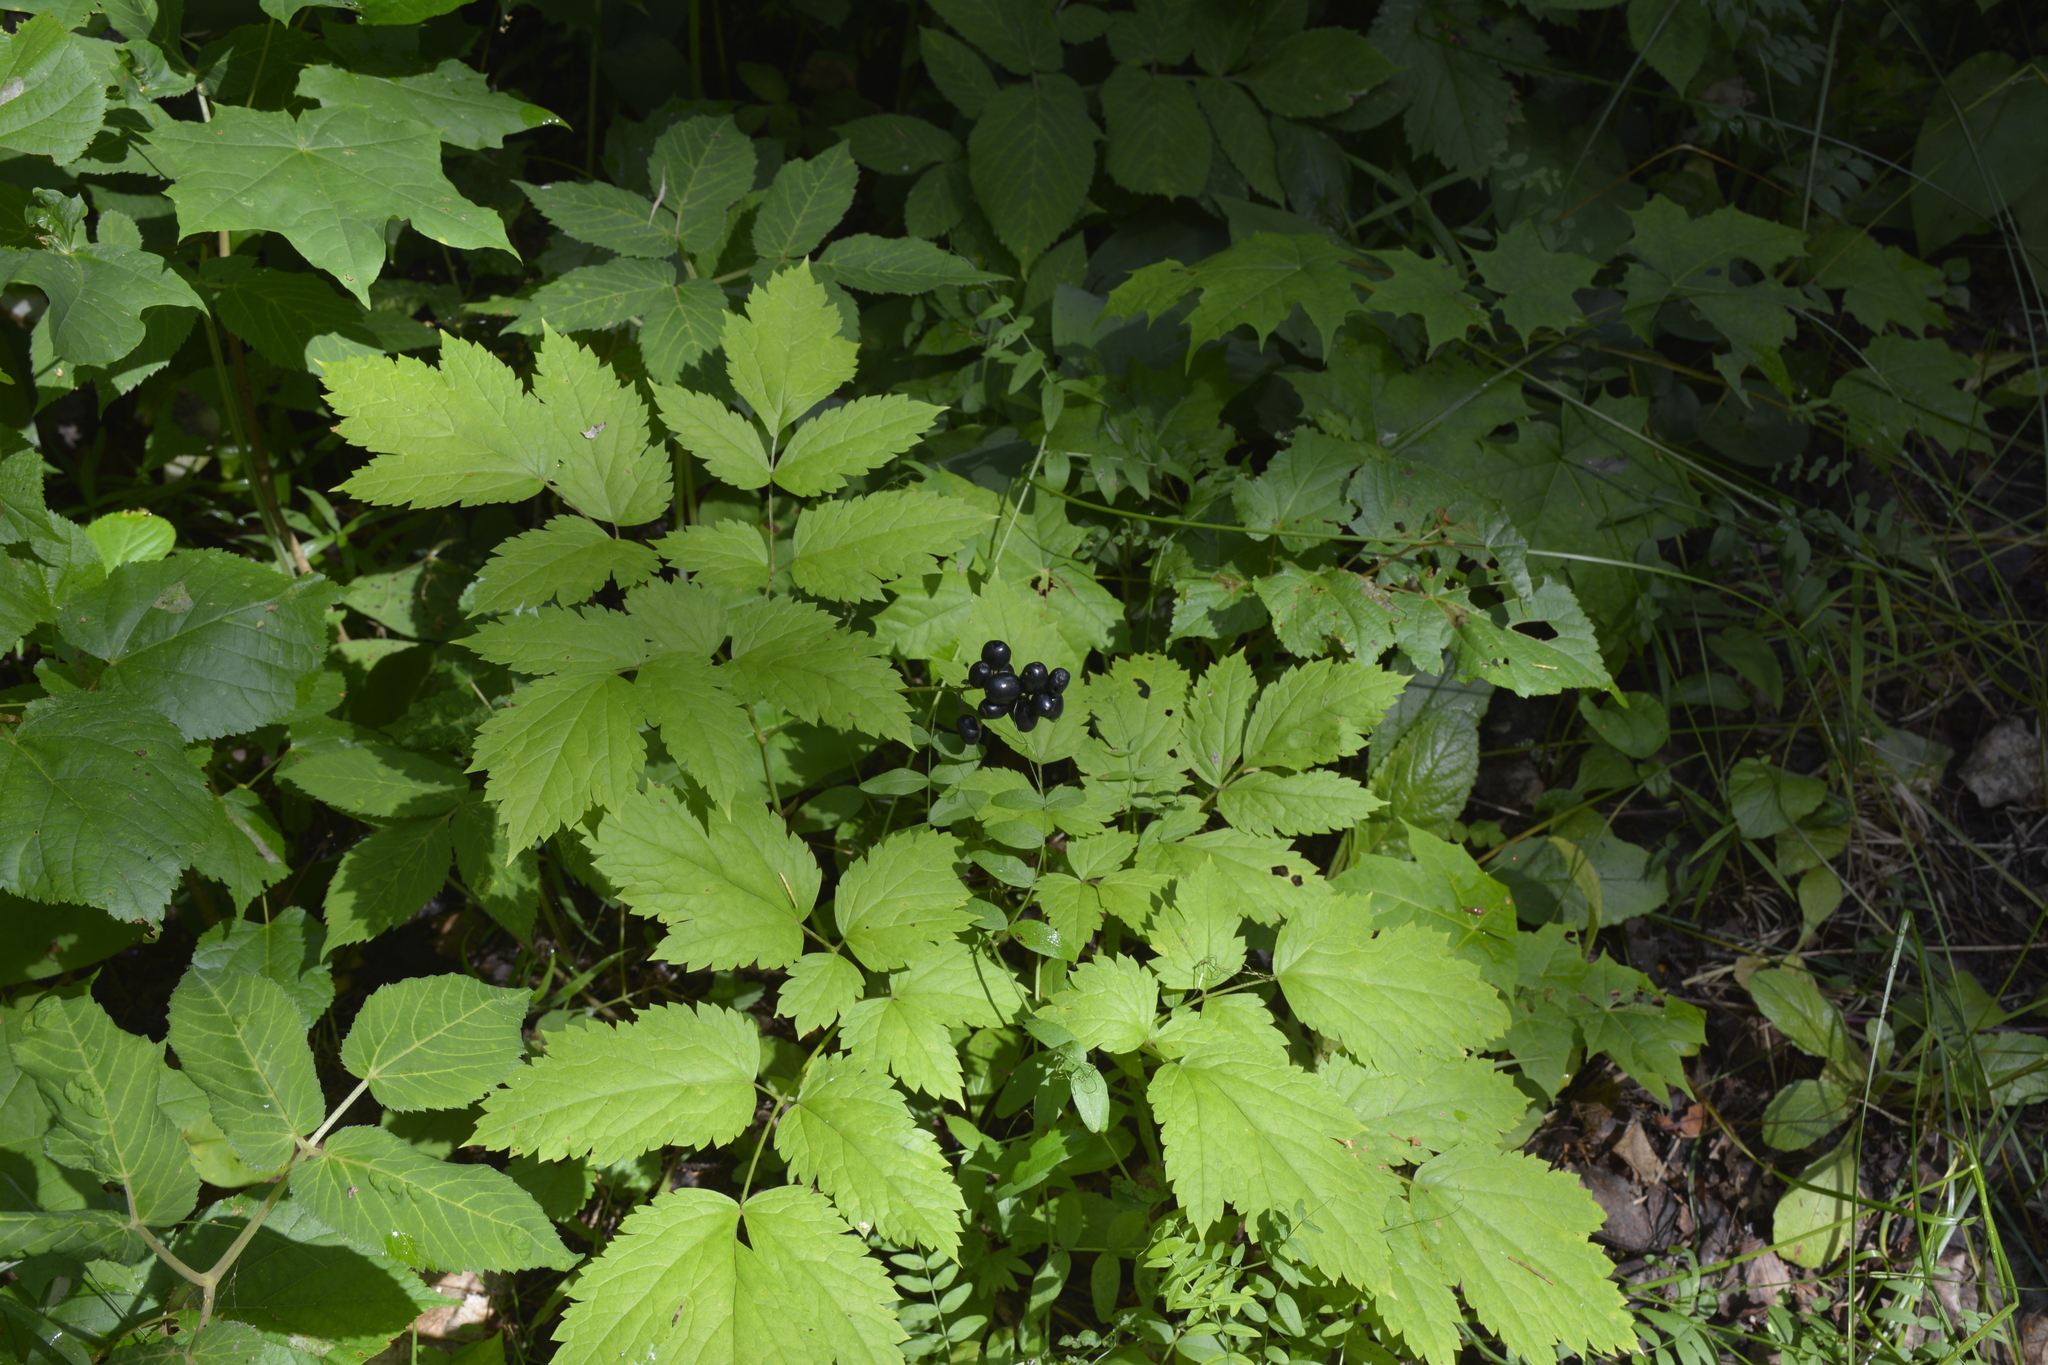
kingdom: Plantae
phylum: Tracheophyta
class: Magnoliopsida
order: Ranunculales
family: Ranunculaceae
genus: Actaea
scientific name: Actaea spicata
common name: Baneberry
